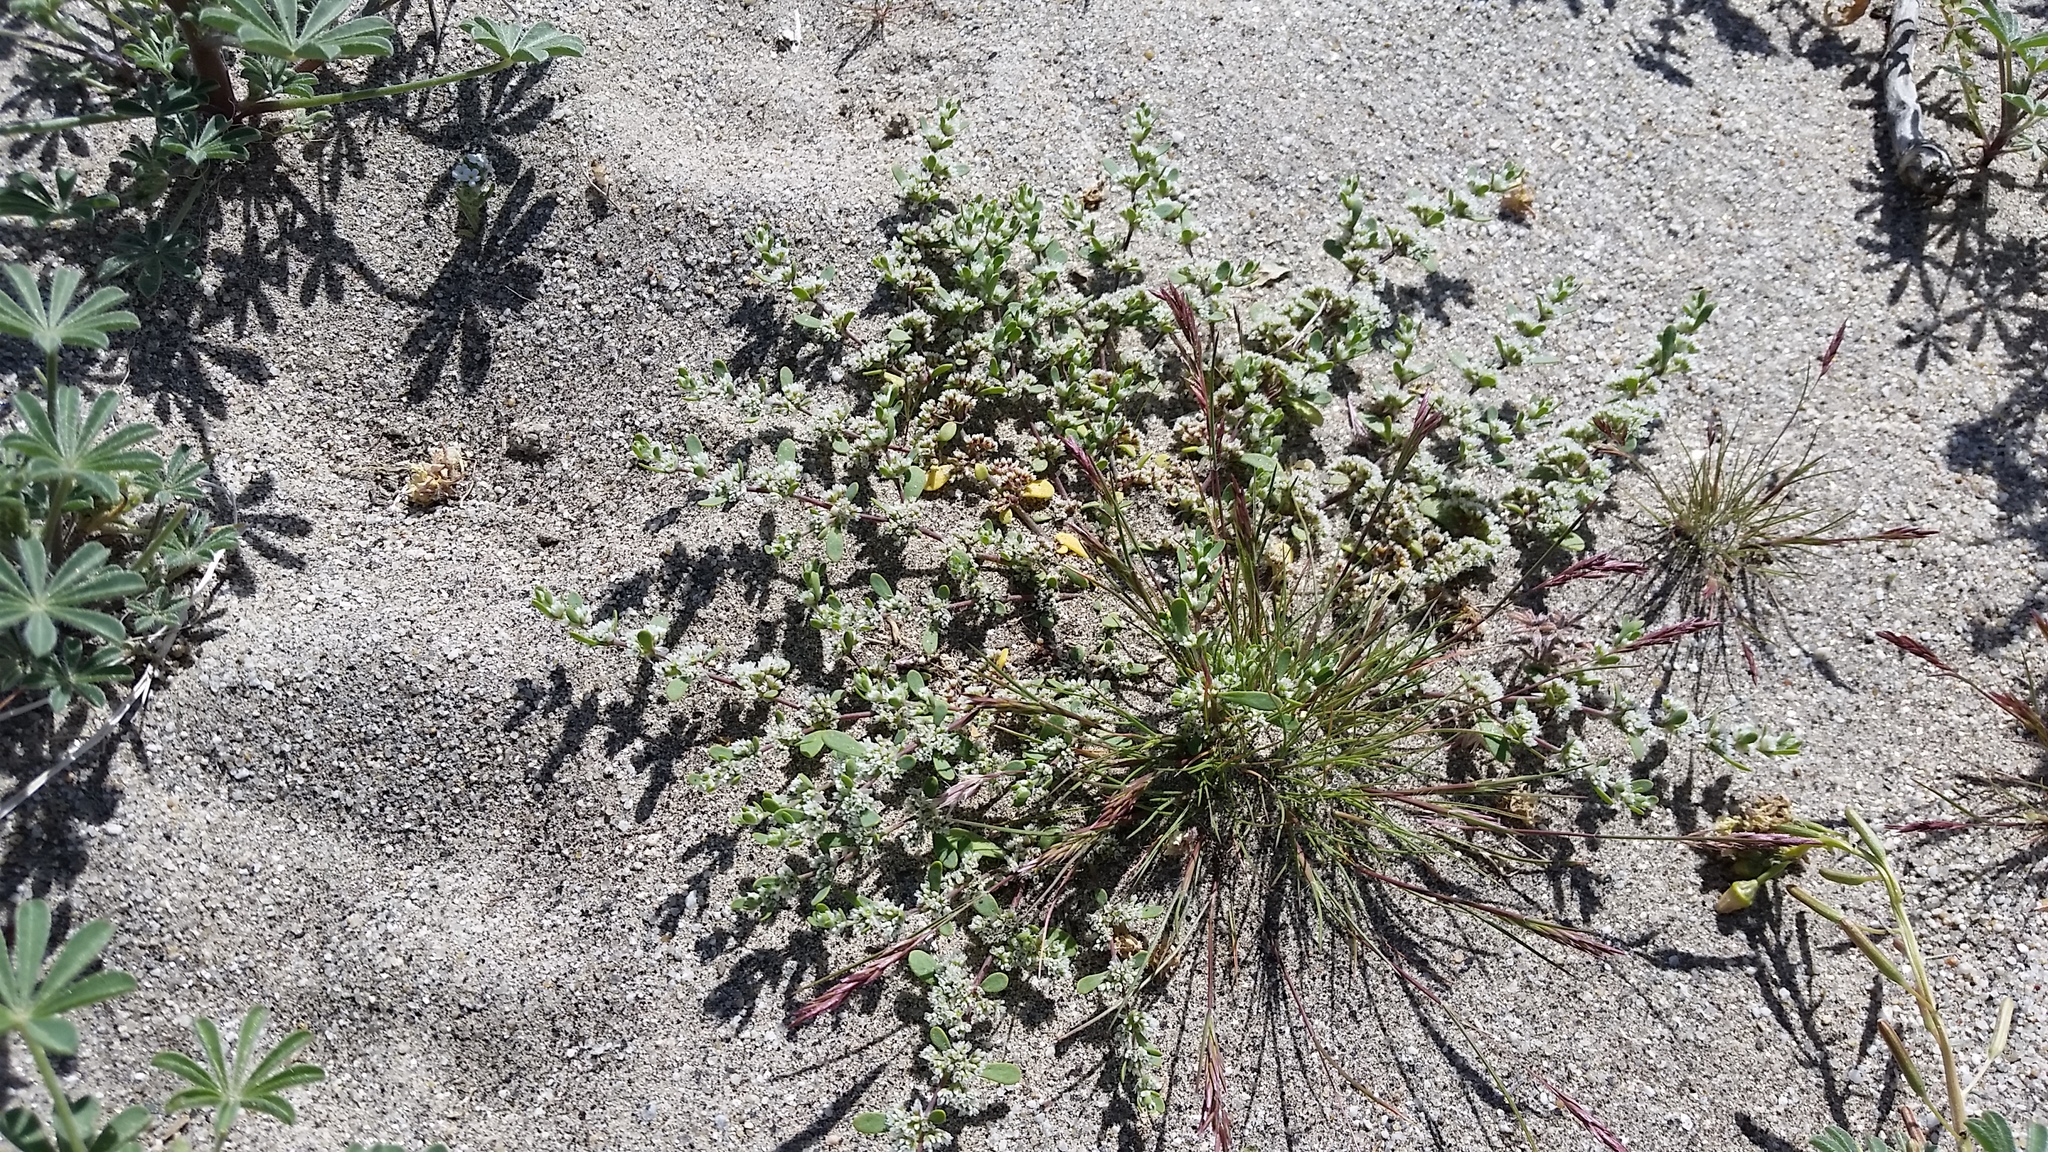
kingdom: Plantae
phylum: Tracheophyta
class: Magnoliopsida
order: Caryophyllales
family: Caryophyllaceae
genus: Achyronychia
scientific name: Achyronychia cooperi
